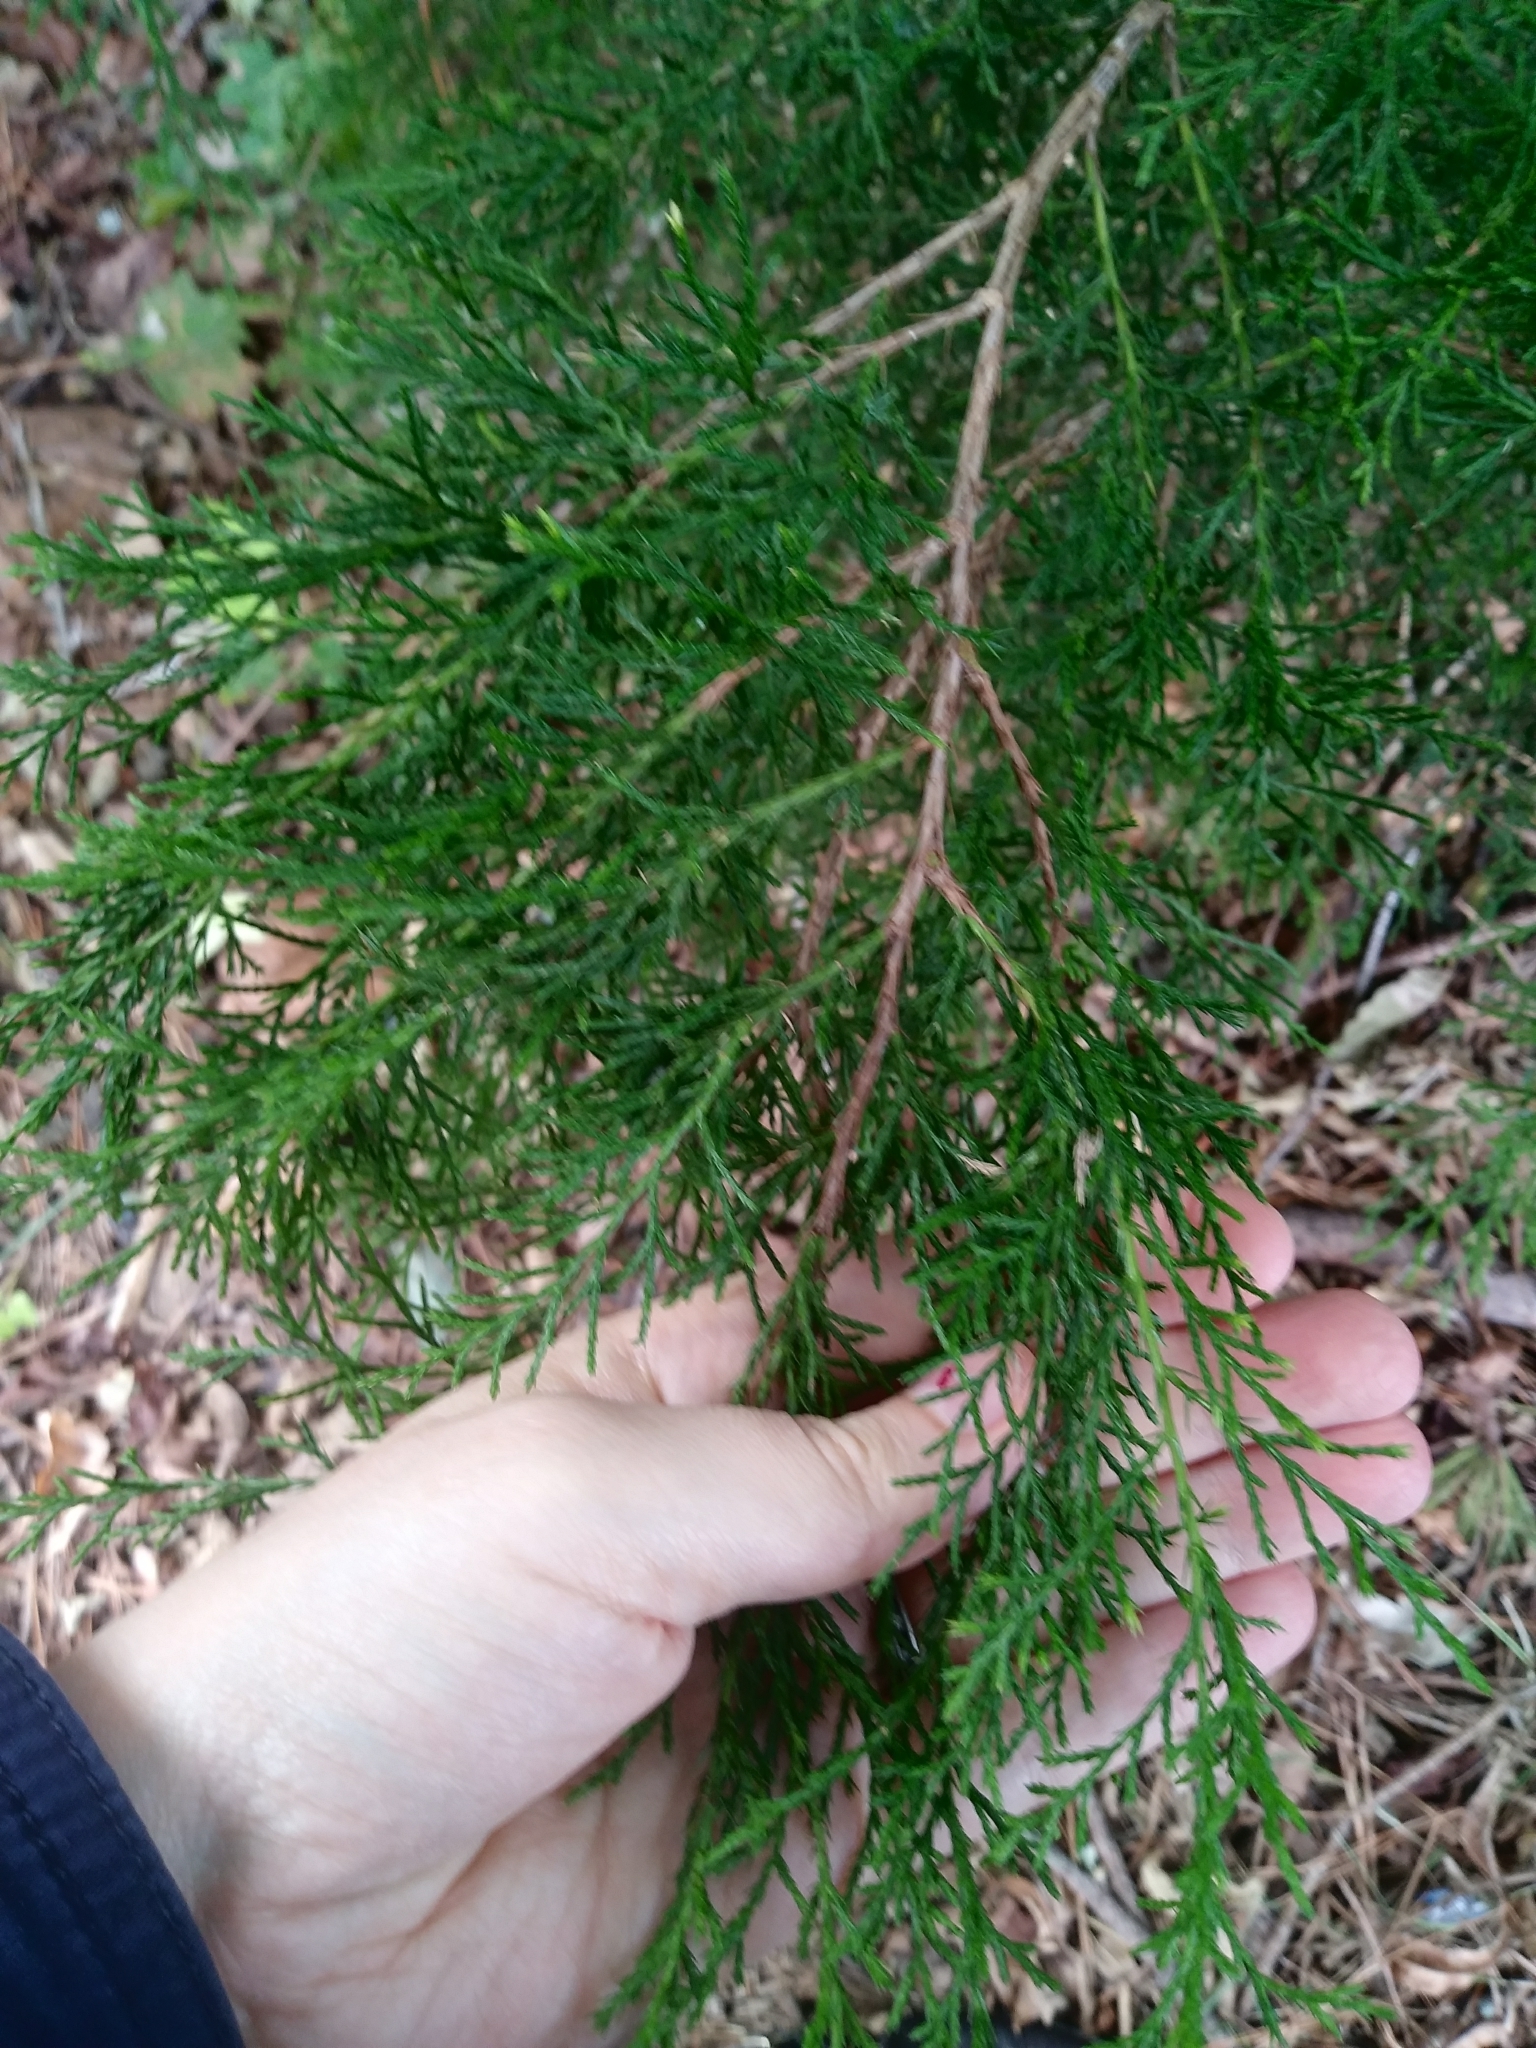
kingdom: Plantae
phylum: Tracheophyta
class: Pinopsida
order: Pinales
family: Cupressaceae
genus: Juniperus
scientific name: Juniperus virginiana
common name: Red juniper
